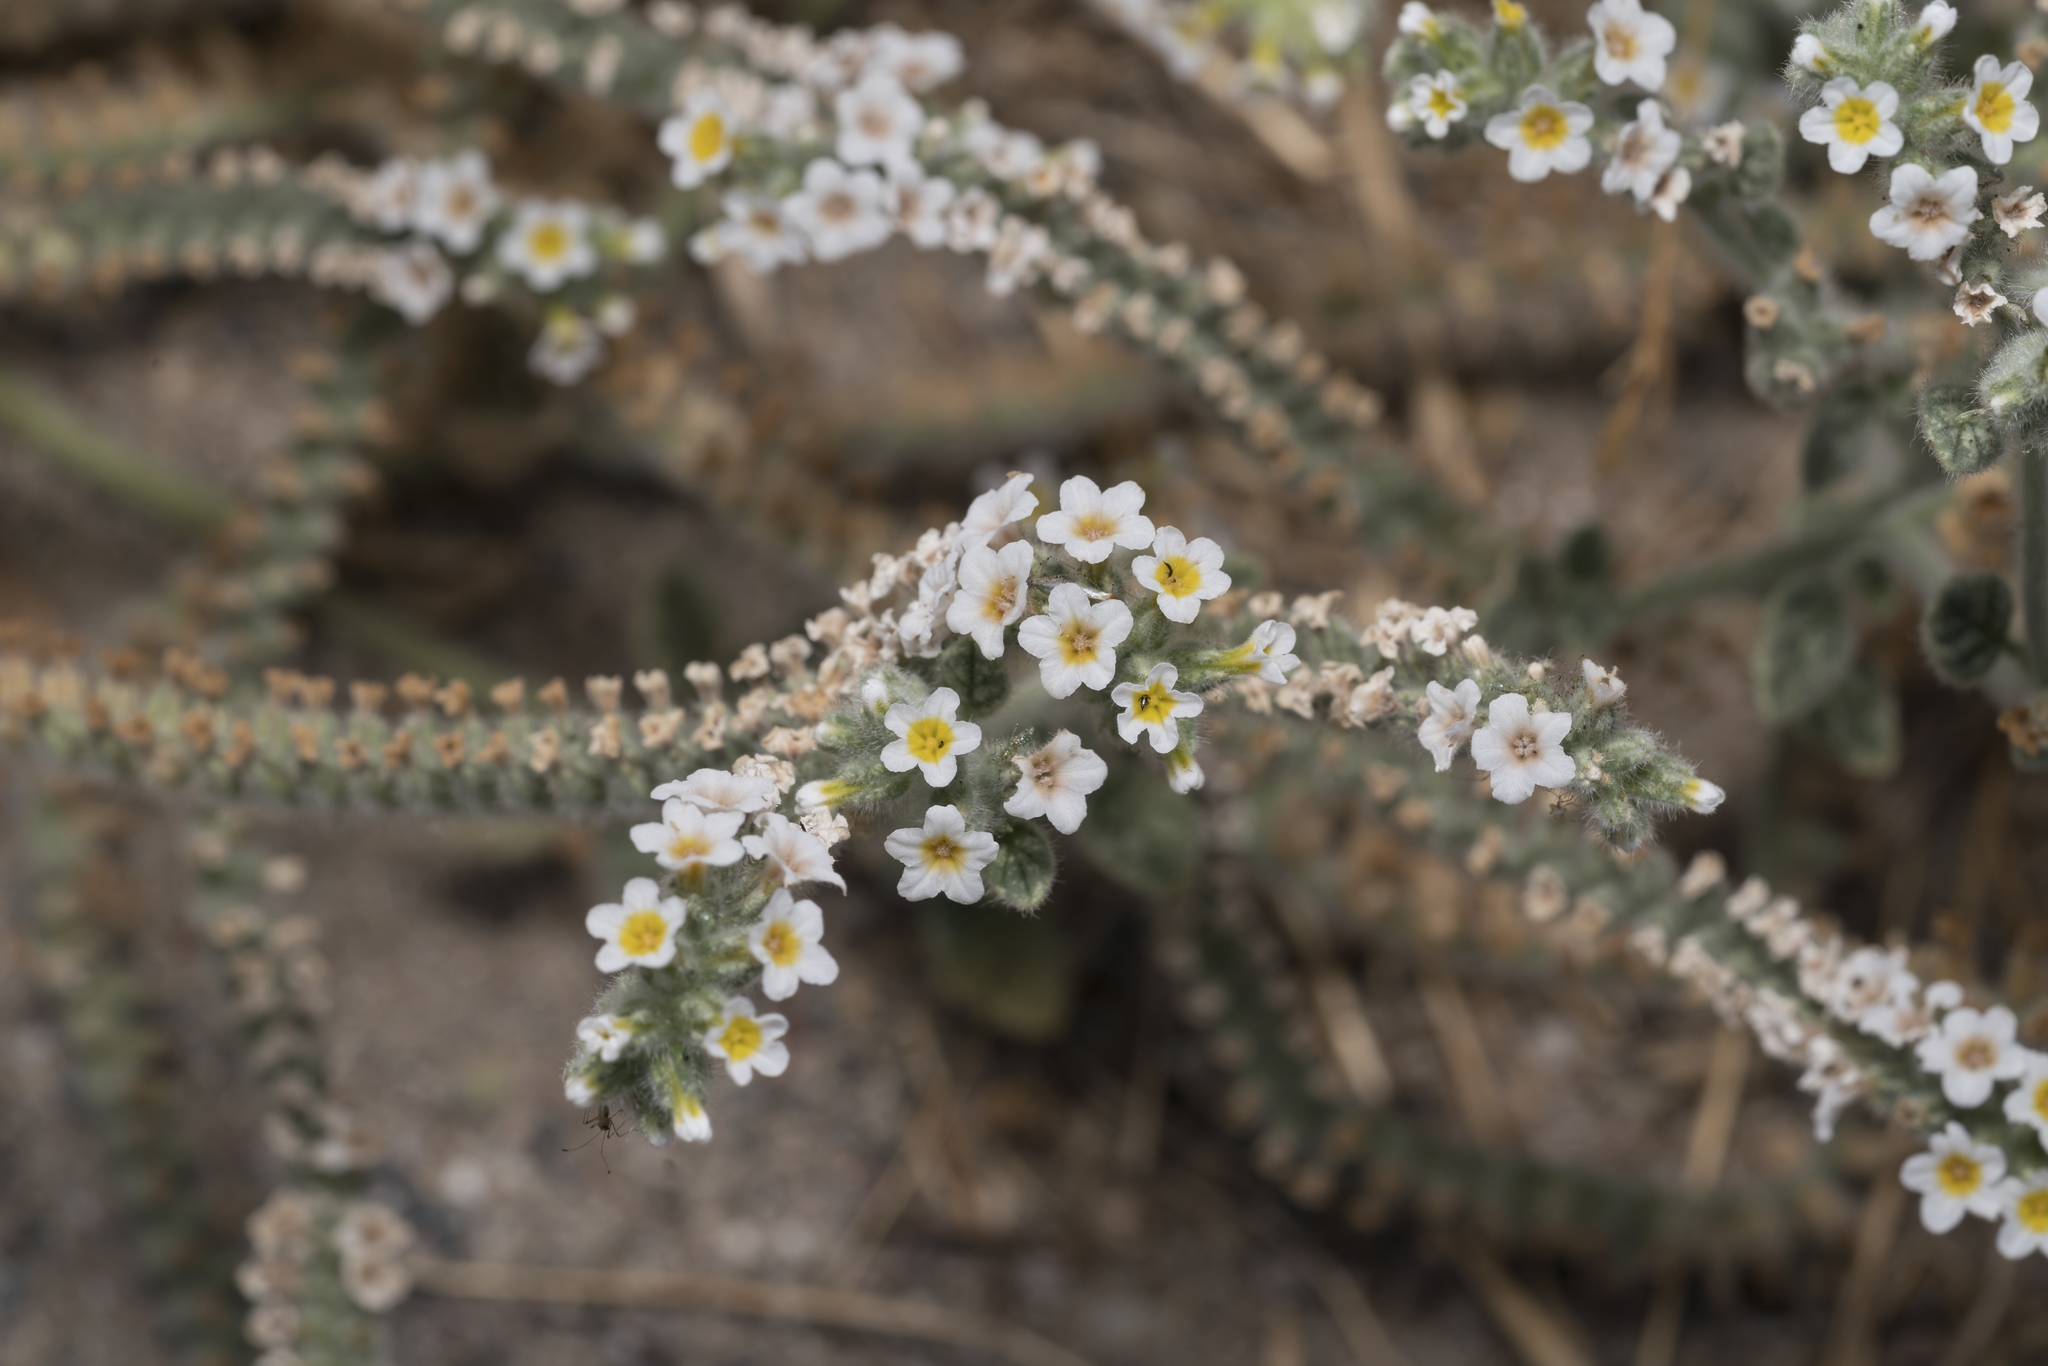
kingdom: Plantae
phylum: Tracheophyta
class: Magnoliopsida
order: Boraginales
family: Heliotropiaceae
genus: Heliotropium
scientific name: Heliotropium hirsutissimum
